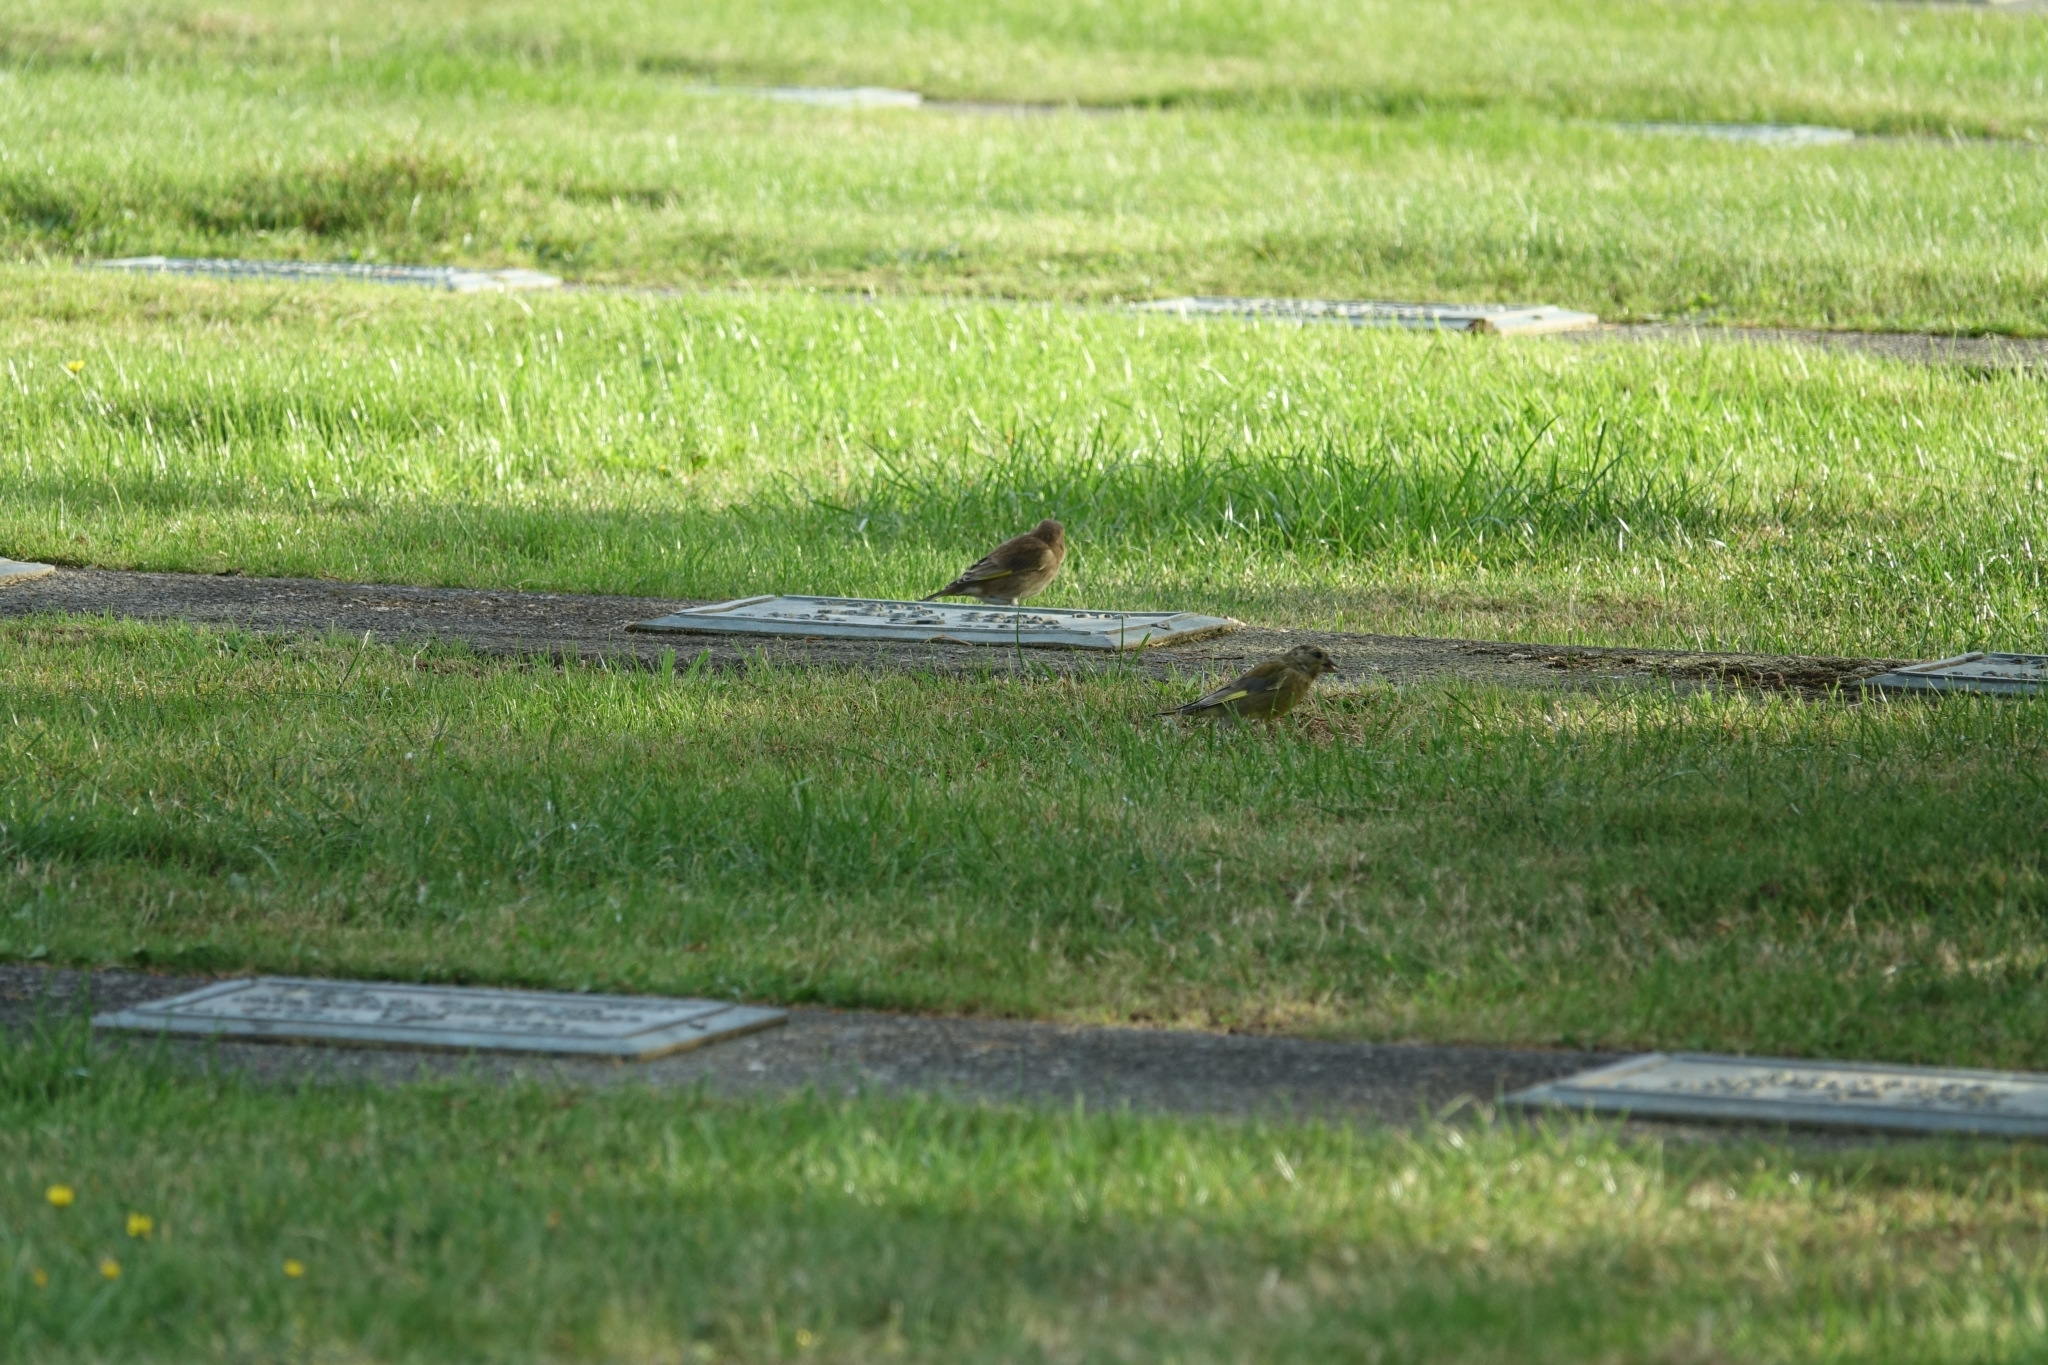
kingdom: Plantae
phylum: Tracheophyta
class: Liliopsida
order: Poales
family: Poaceae
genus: Chloris
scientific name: Chloris chloris
